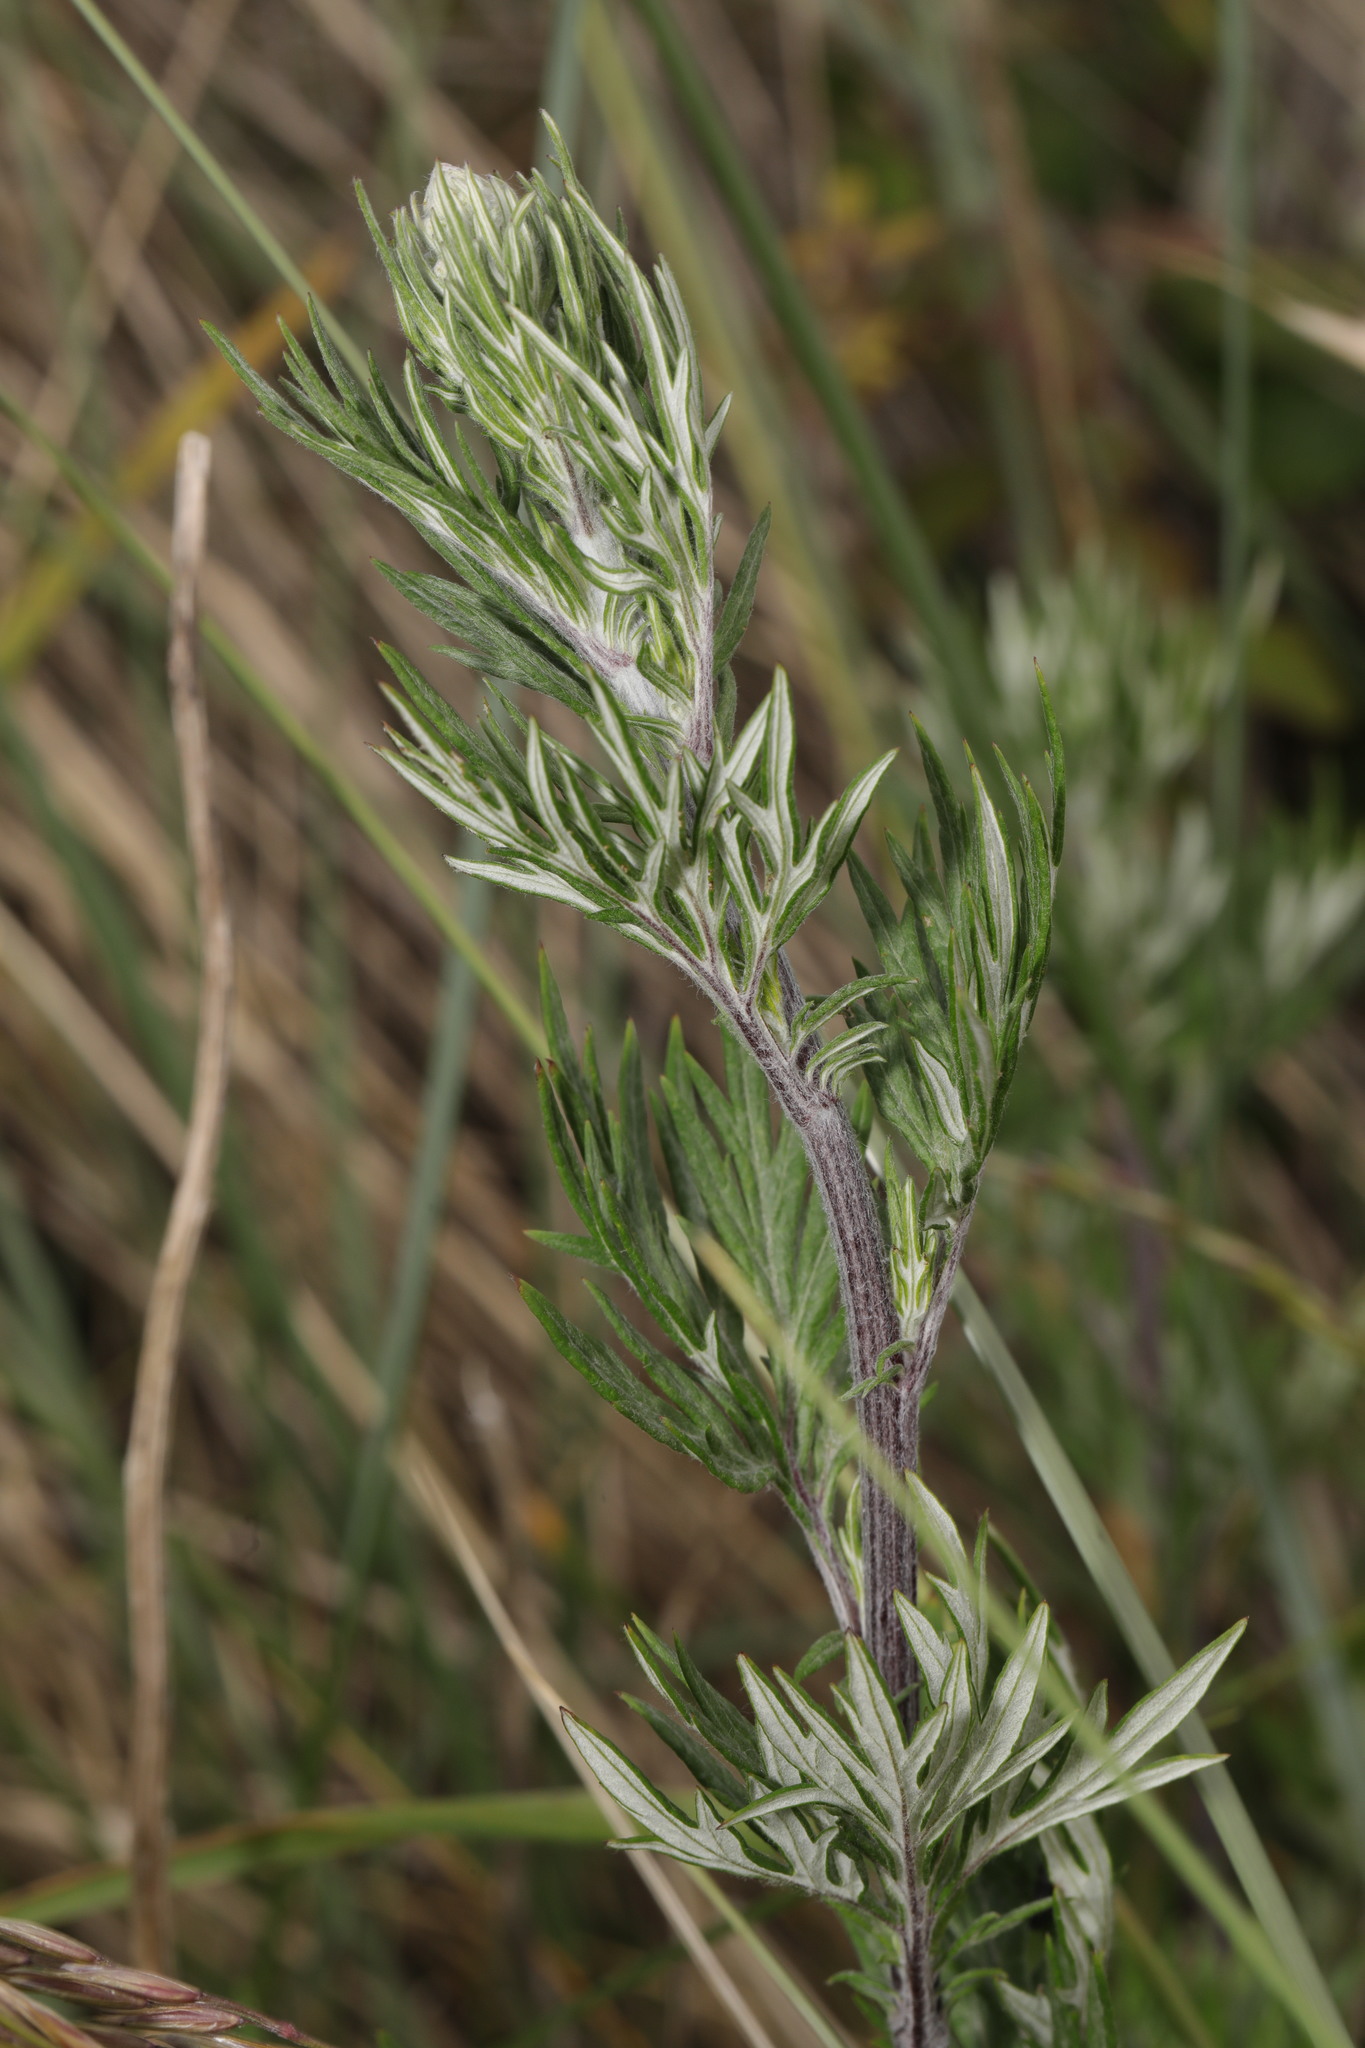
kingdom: Plantae
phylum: Tracheophyta
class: Magnoliopsida
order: Asterales
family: Asteraceae
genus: Artemisia
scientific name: Artemisia vulgaris
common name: Mugwort
